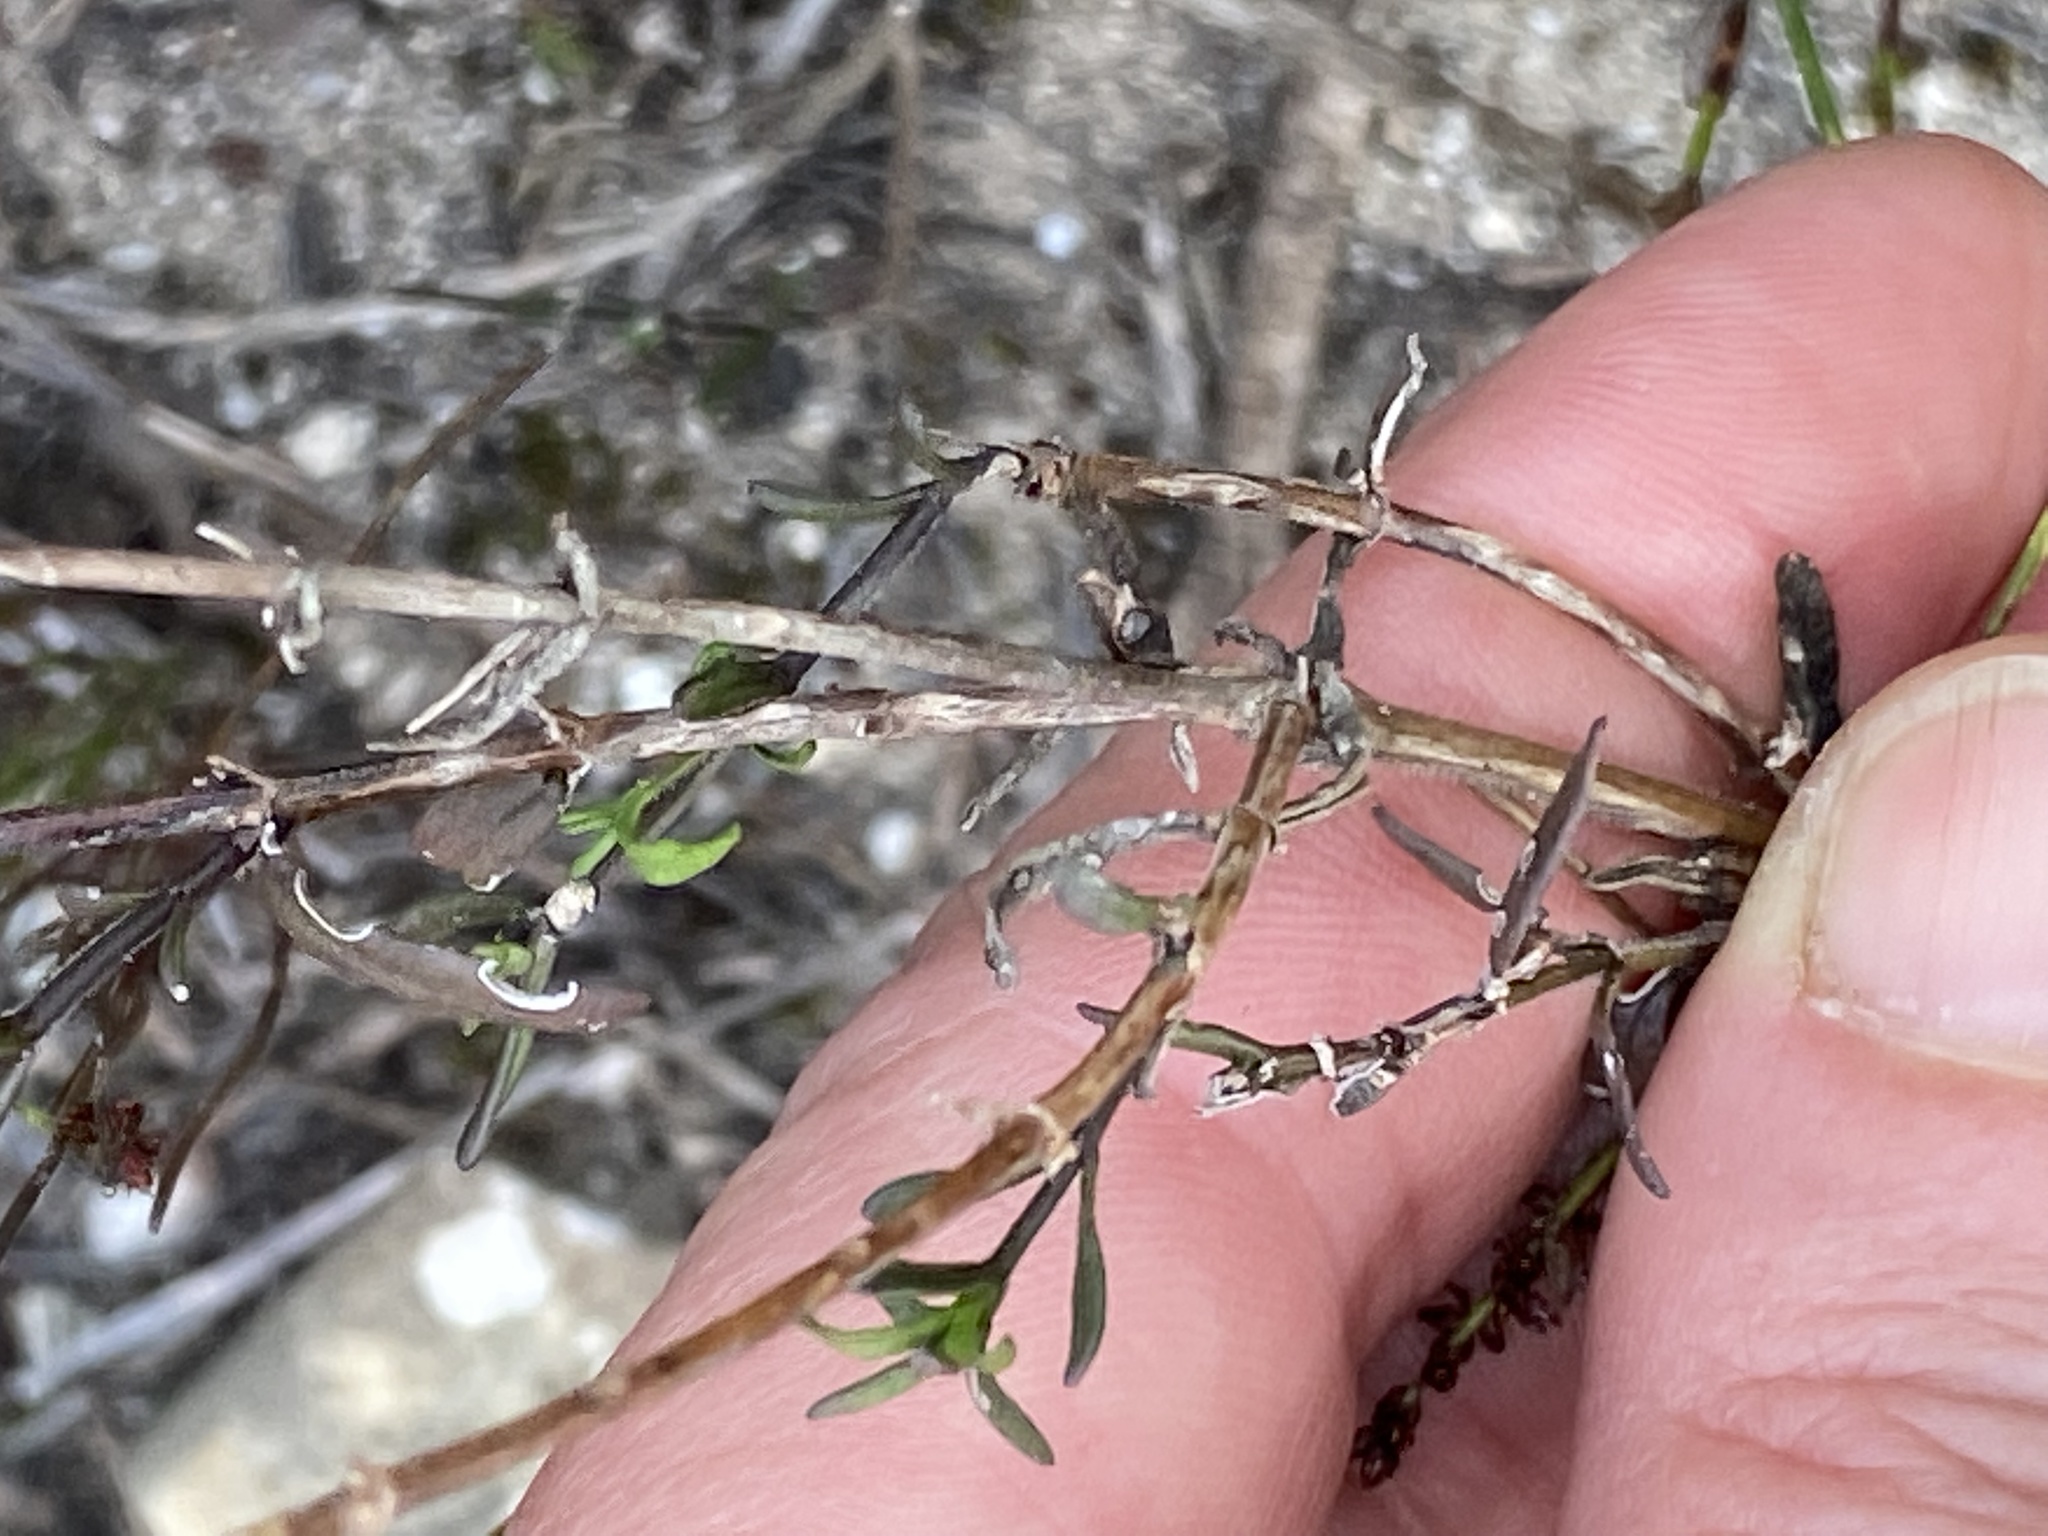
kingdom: Plantae
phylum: Tracheophyta
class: Magnoliopsida
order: Lamiales
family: Scrophulariaceae
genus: Chaenostoma
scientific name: Chaenostoma placidum
